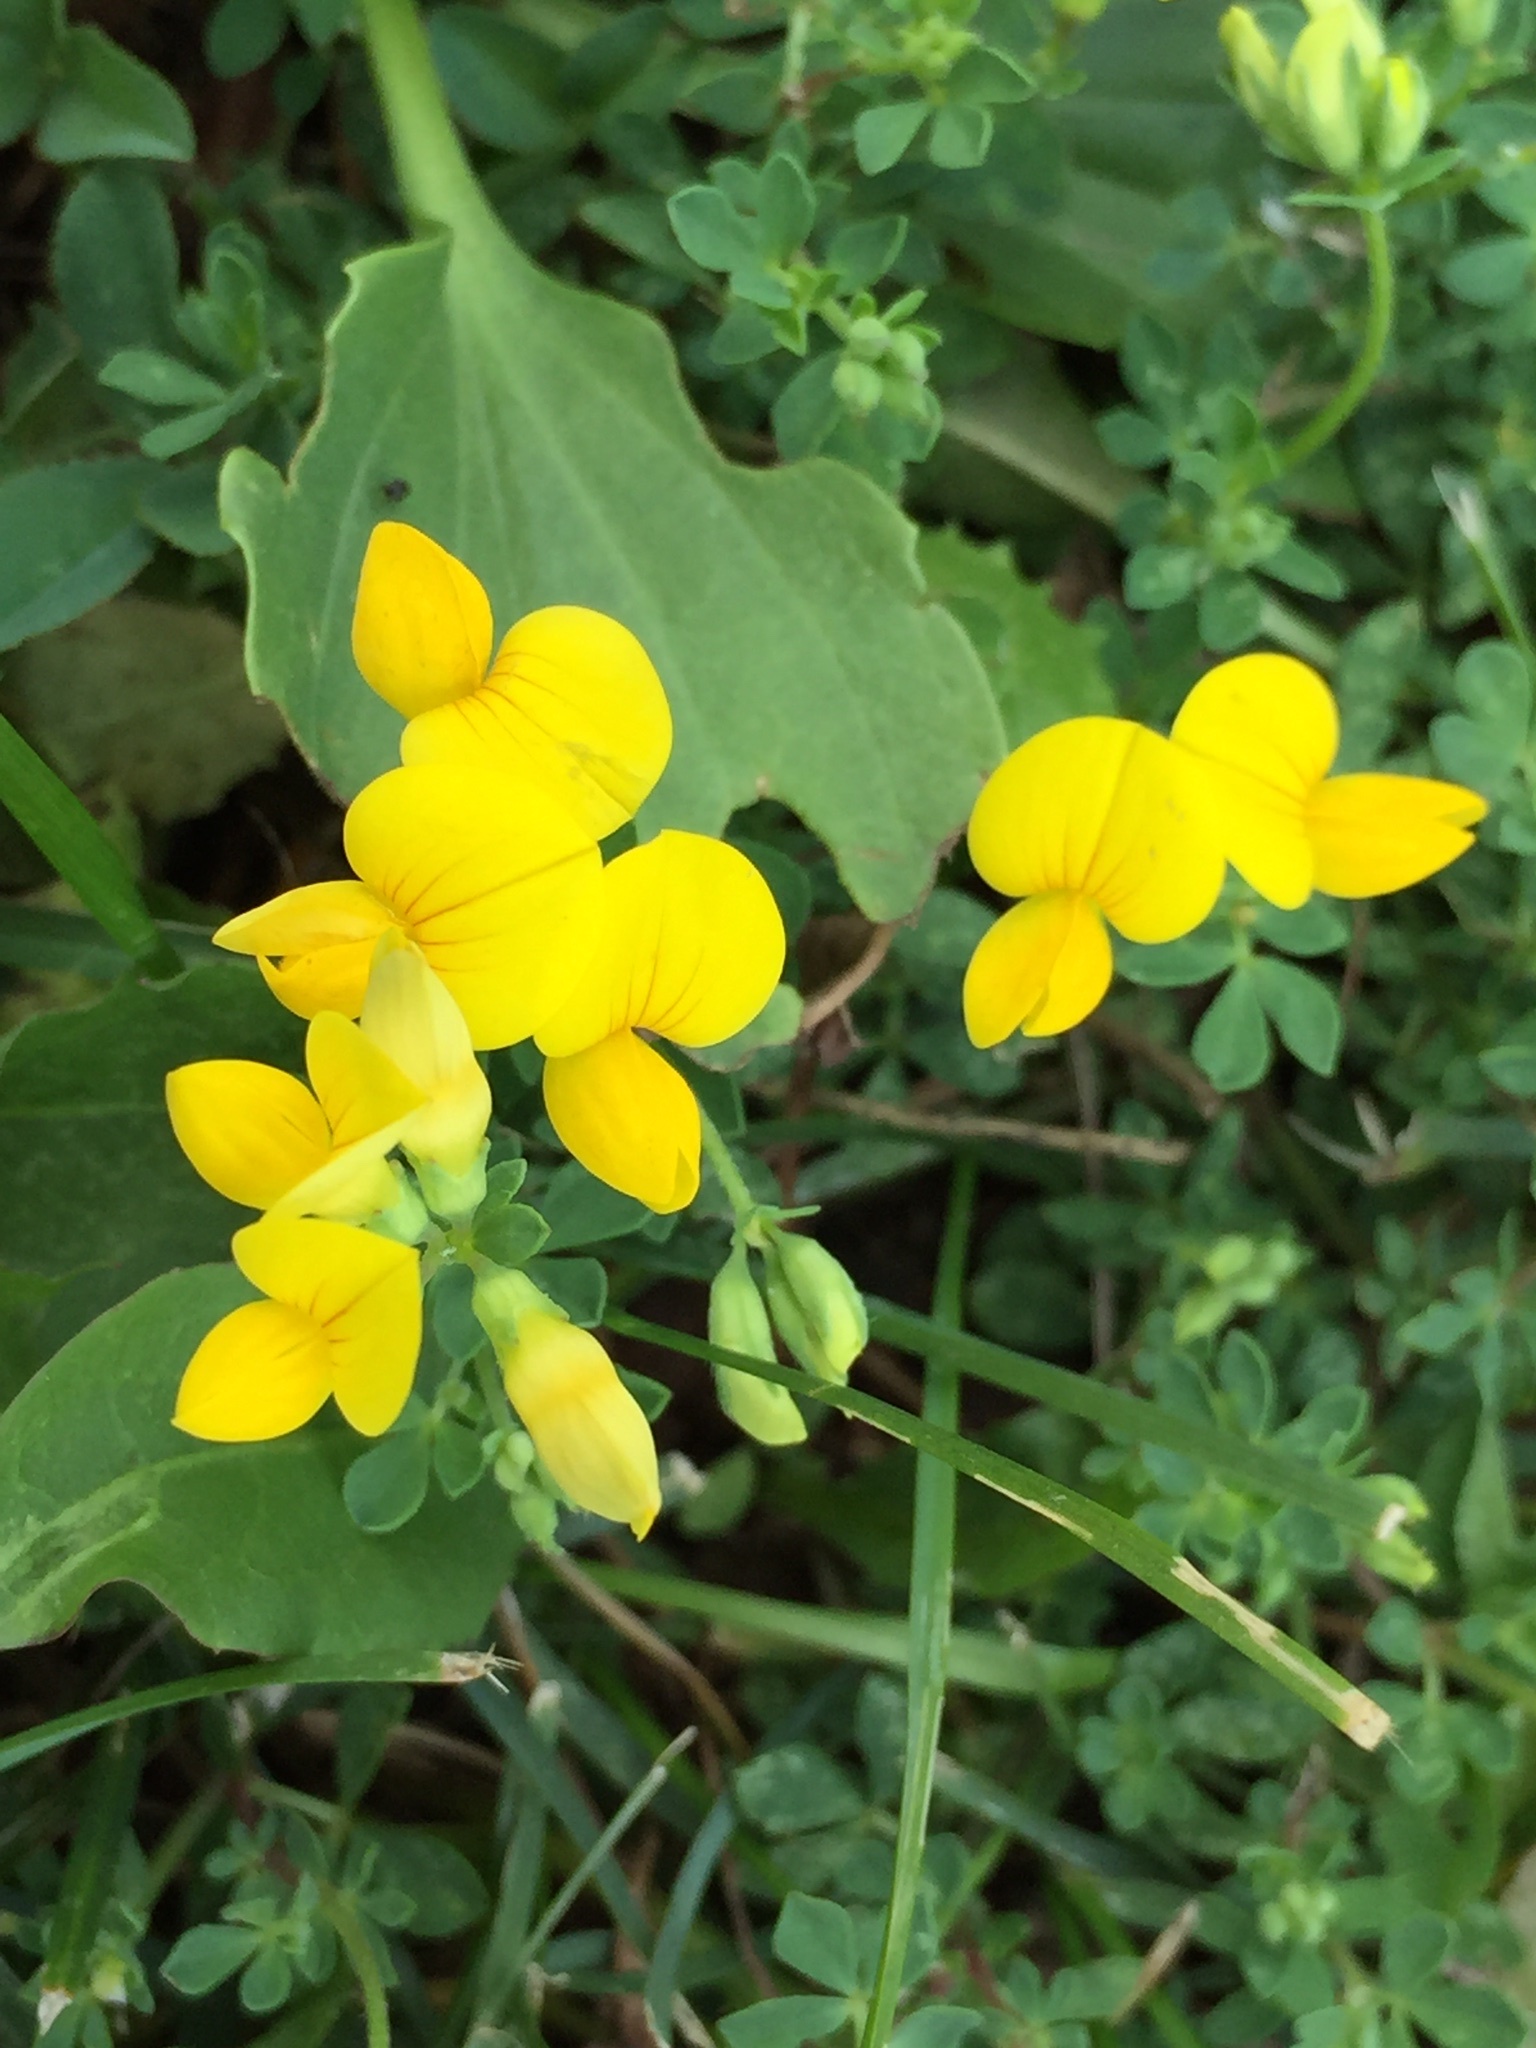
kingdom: Plantae
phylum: Tracheophyta
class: Magnoliopsida
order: Fabales
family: Fabaceae
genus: Lotus
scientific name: Lotus corniculatus
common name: Common bird's-foot-trefoil
